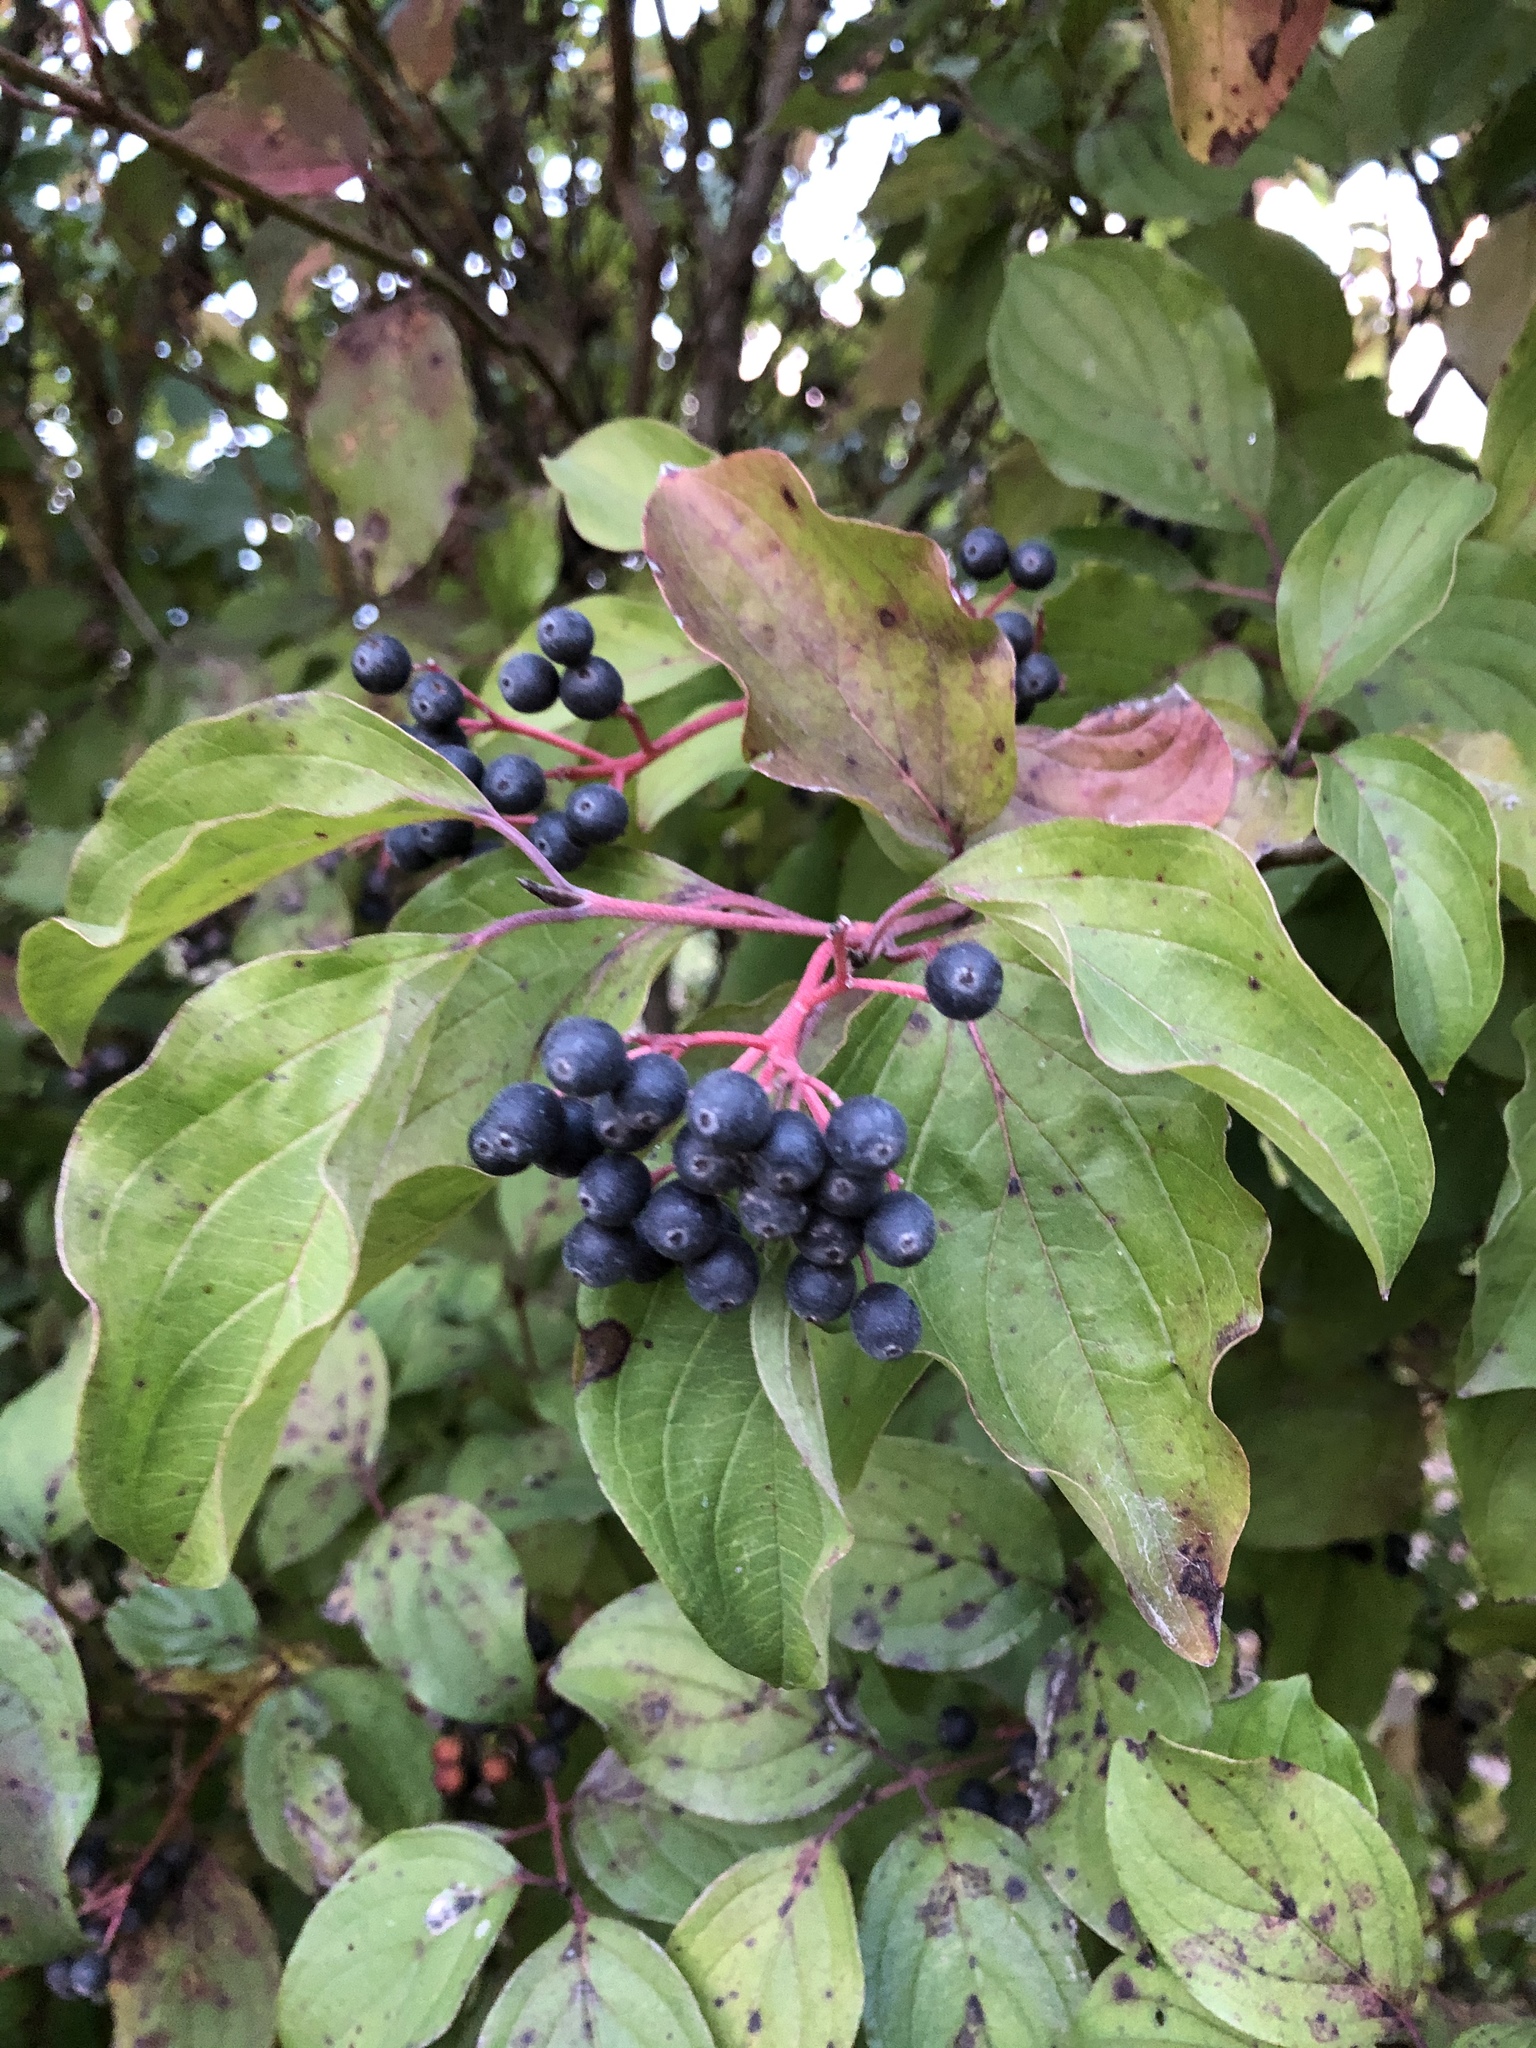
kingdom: Plantae
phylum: Tracheophyta
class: Magnoliopsida
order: Cornales
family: Cornaceae
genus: Cornus
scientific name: Cornus sanguinea
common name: Dogwood
